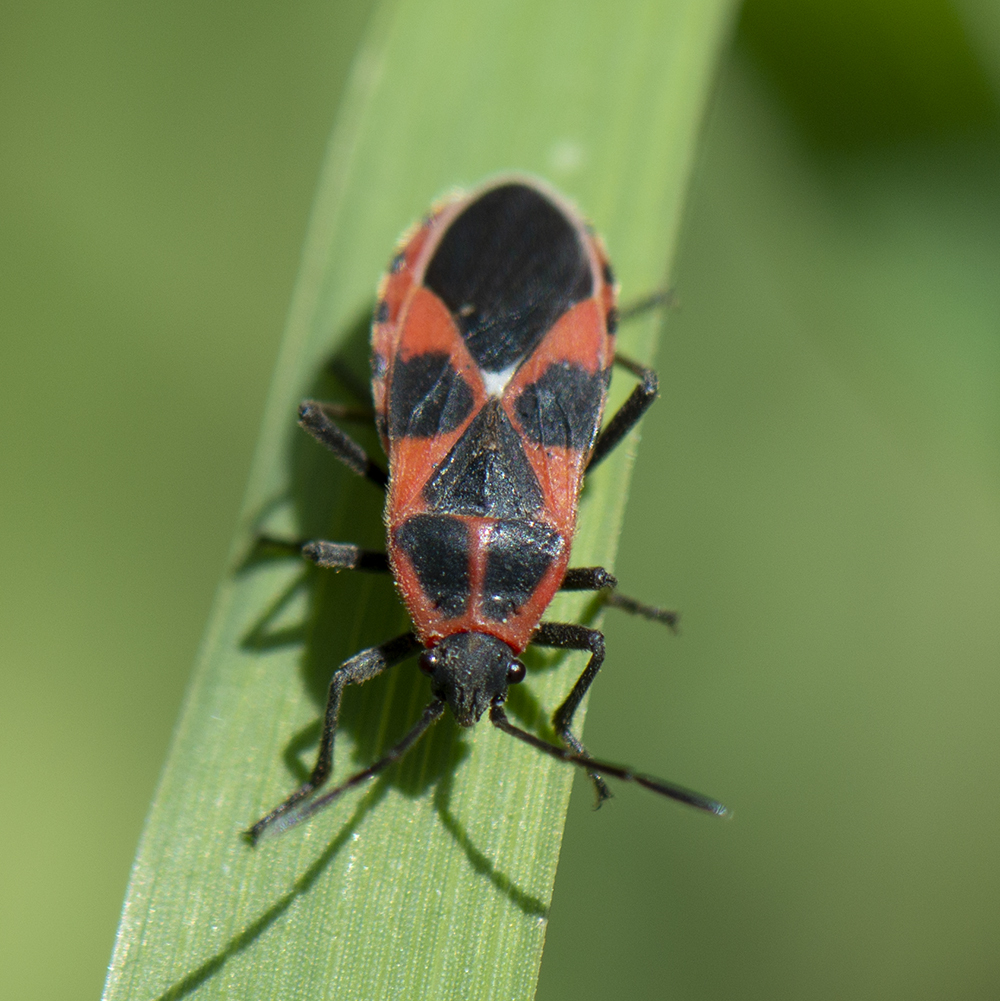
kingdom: Animalia
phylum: Arthropoda
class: Insecta
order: Hemiptera
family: Lygaeidae
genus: Tropidothorax
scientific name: Tropidothorax leucopterus
